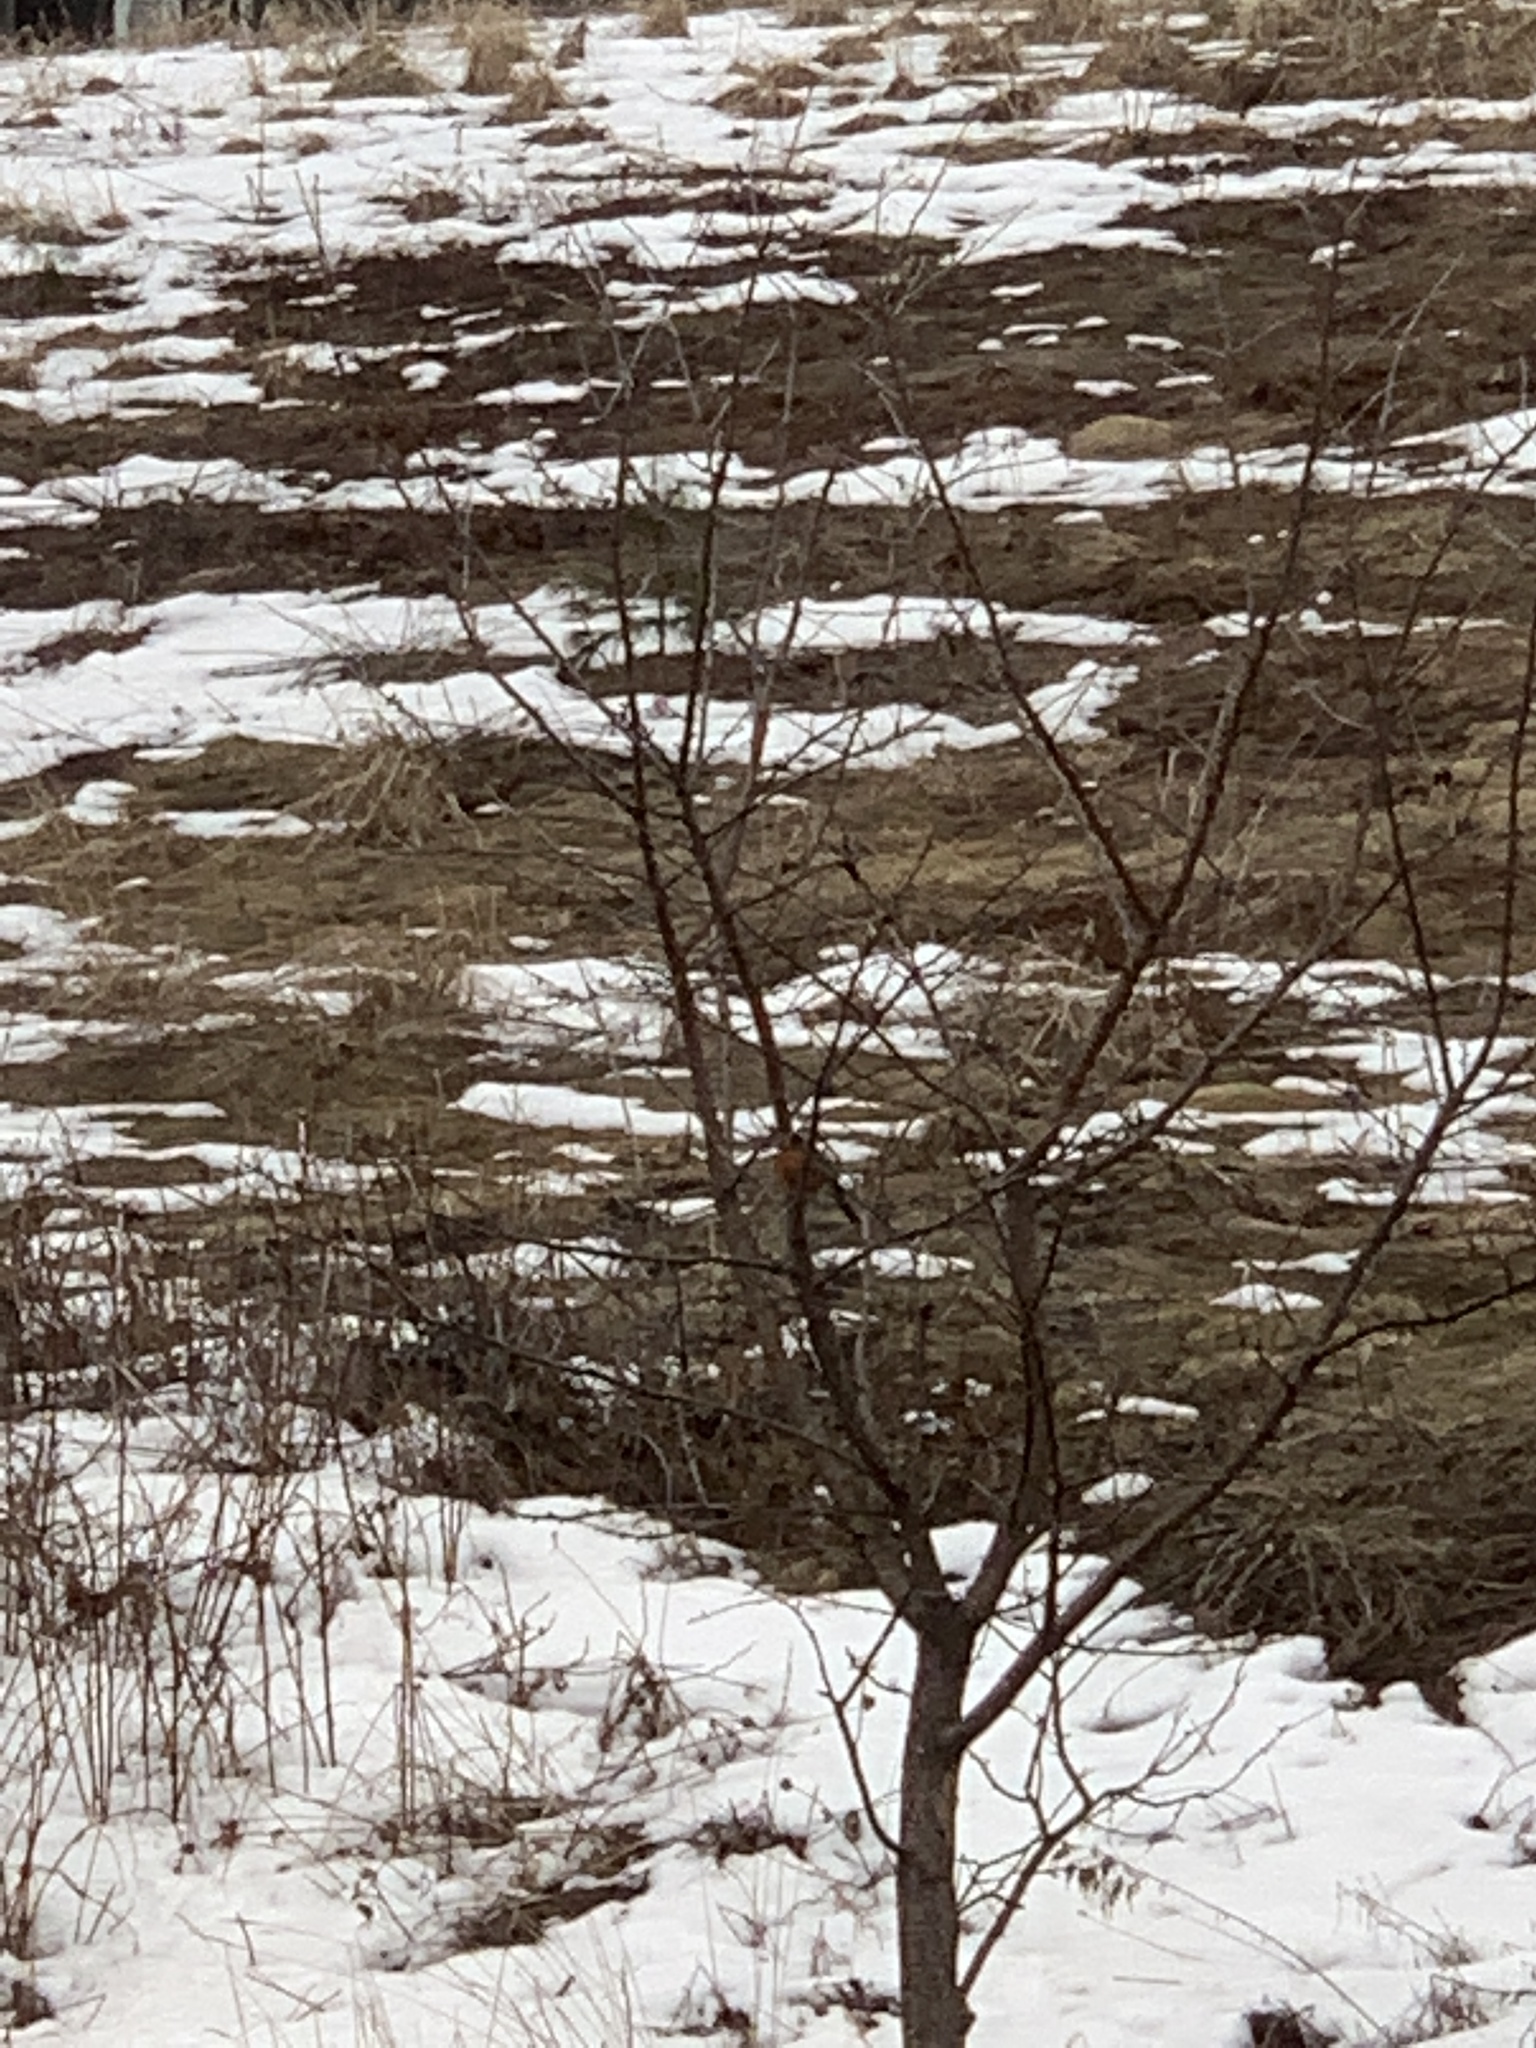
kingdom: Animalia
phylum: Chordata
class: Aves
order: Passeriformes
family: Turdidae
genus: Turdus
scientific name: Turdus migratorius
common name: American robin
